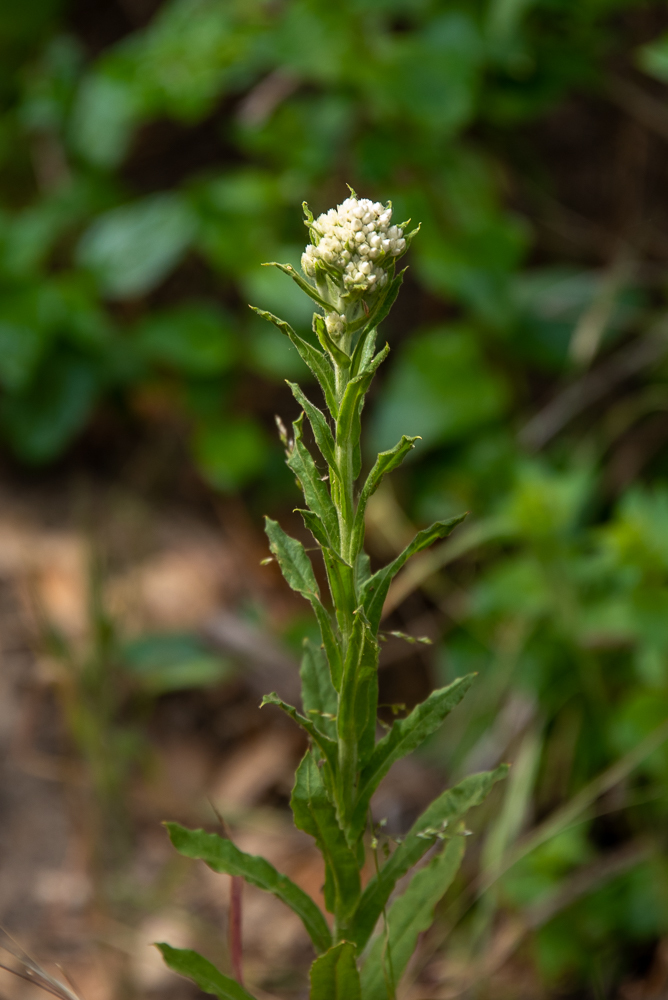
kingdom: Plantae
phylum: Tracheophyta
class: Magnoliopsida
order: Asterales
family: Asteraceae
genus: Pseudognaphalium
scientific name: Pseudognaphalium biolettii
